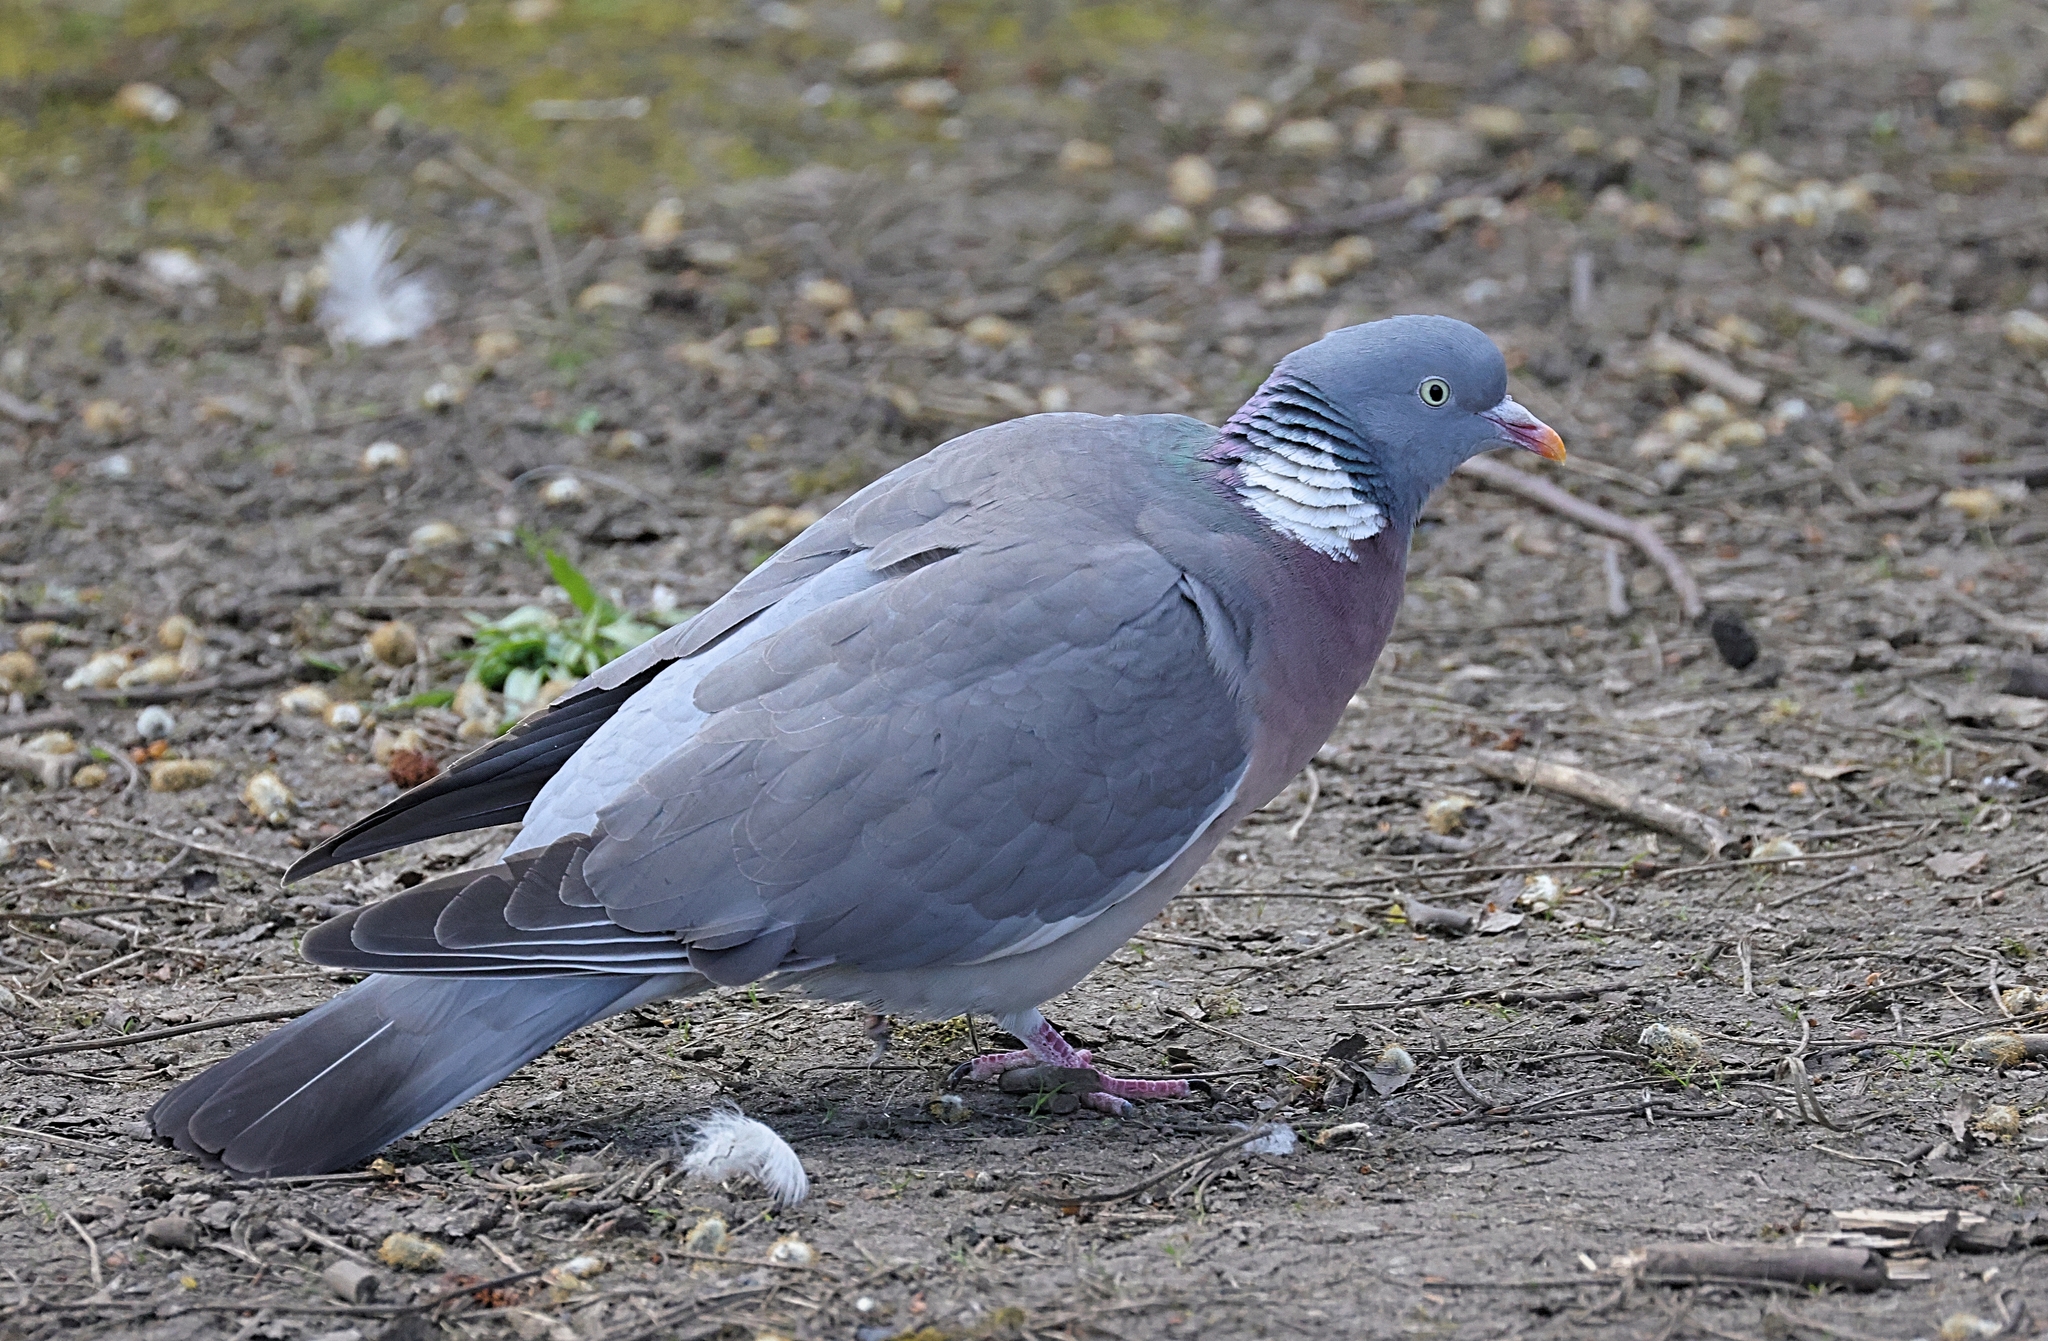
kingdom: Animalia
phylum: Chordata
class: Aves
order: Columbiformes
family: Columbidae
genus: Columba
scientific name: Columba palumbus
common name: Common wood pigeon
